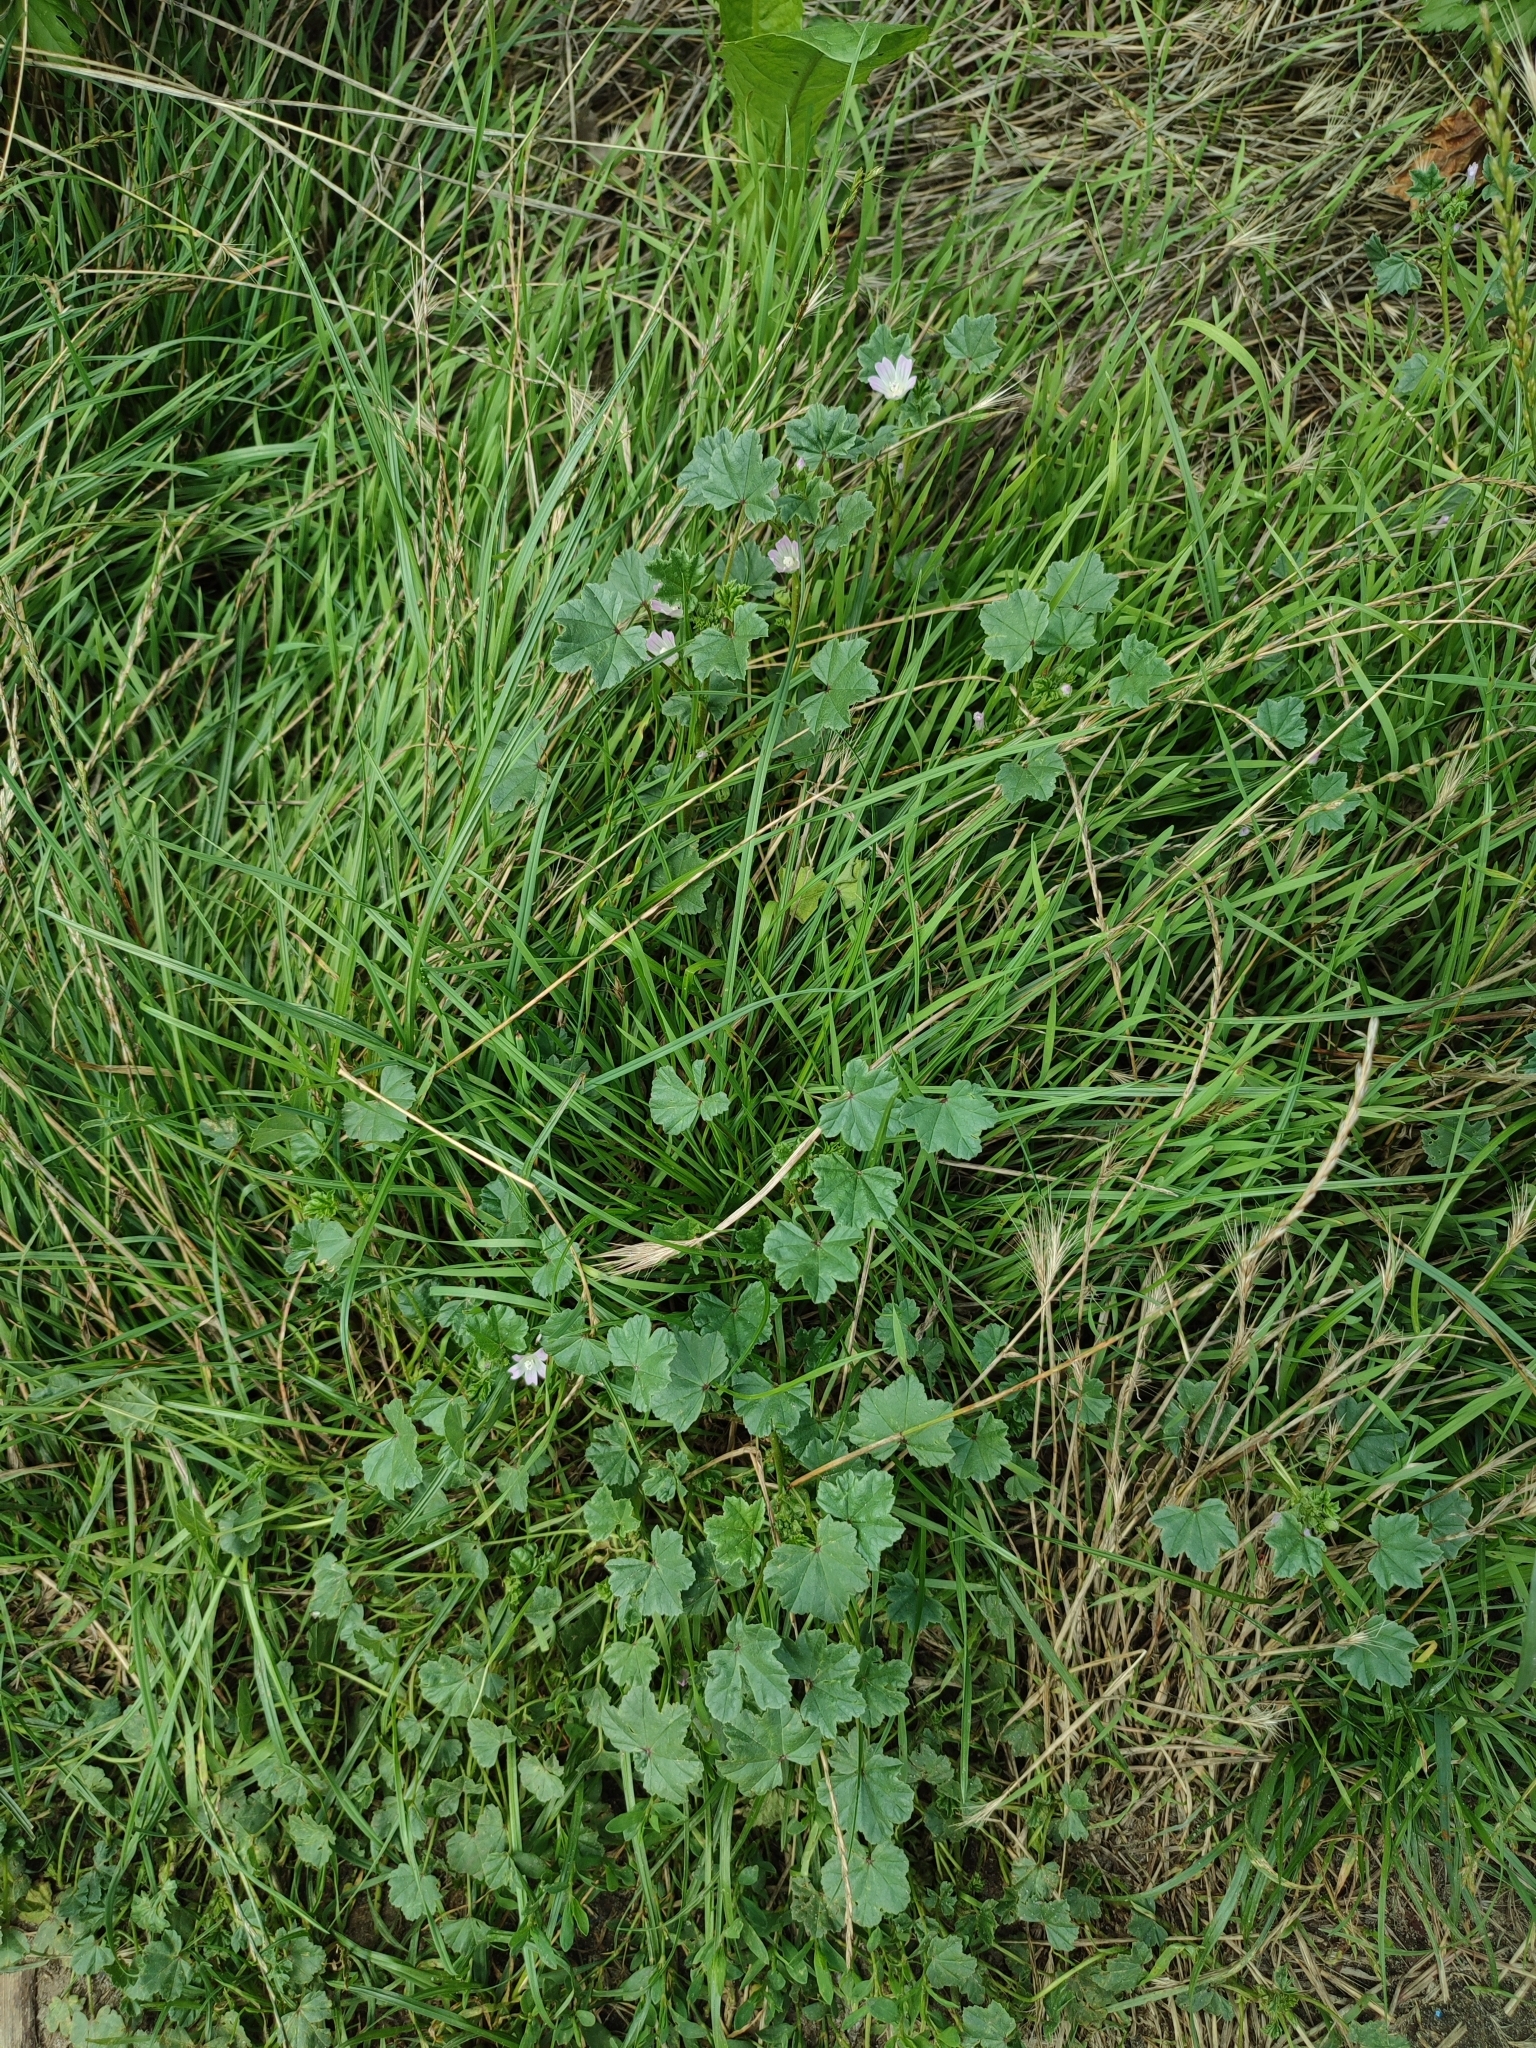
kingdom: Plantae
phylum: Tracheophyta
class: Magnoliopsida
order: Malvales
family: Malvaceae
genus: Malva
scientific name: Malva neglecta
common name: Common mallow
